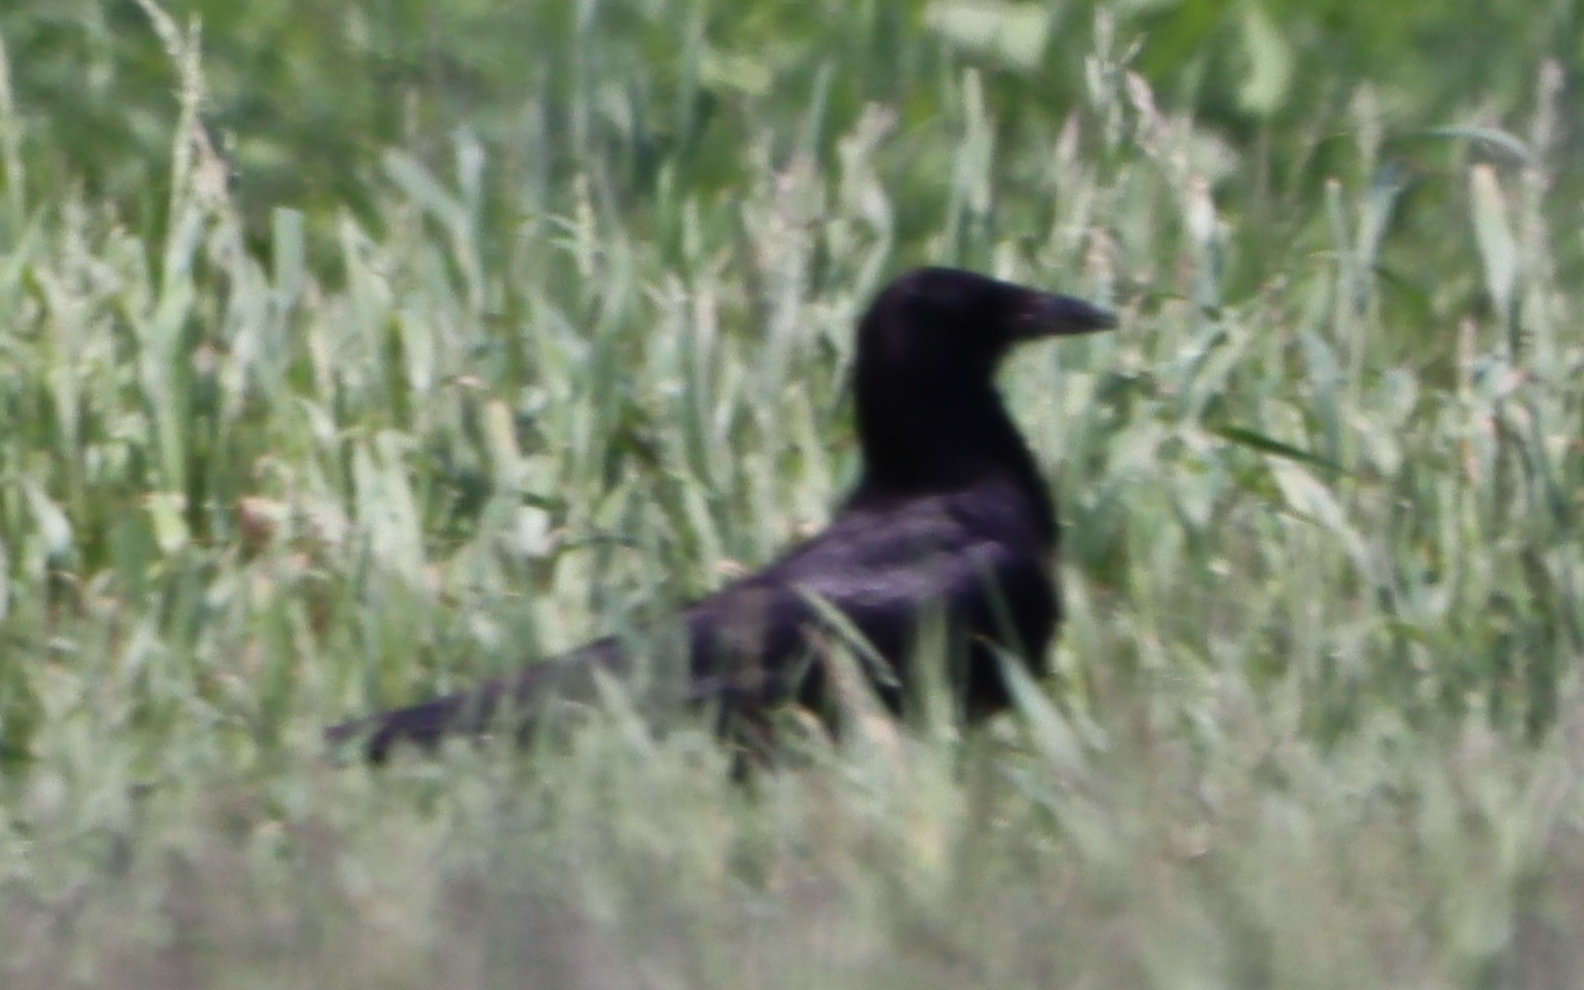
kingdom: Animalia
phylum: Chordata
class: Aves
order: Passeriformes
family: Corvidae
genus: Corvus
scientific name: Corvus corax
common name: Common raven
